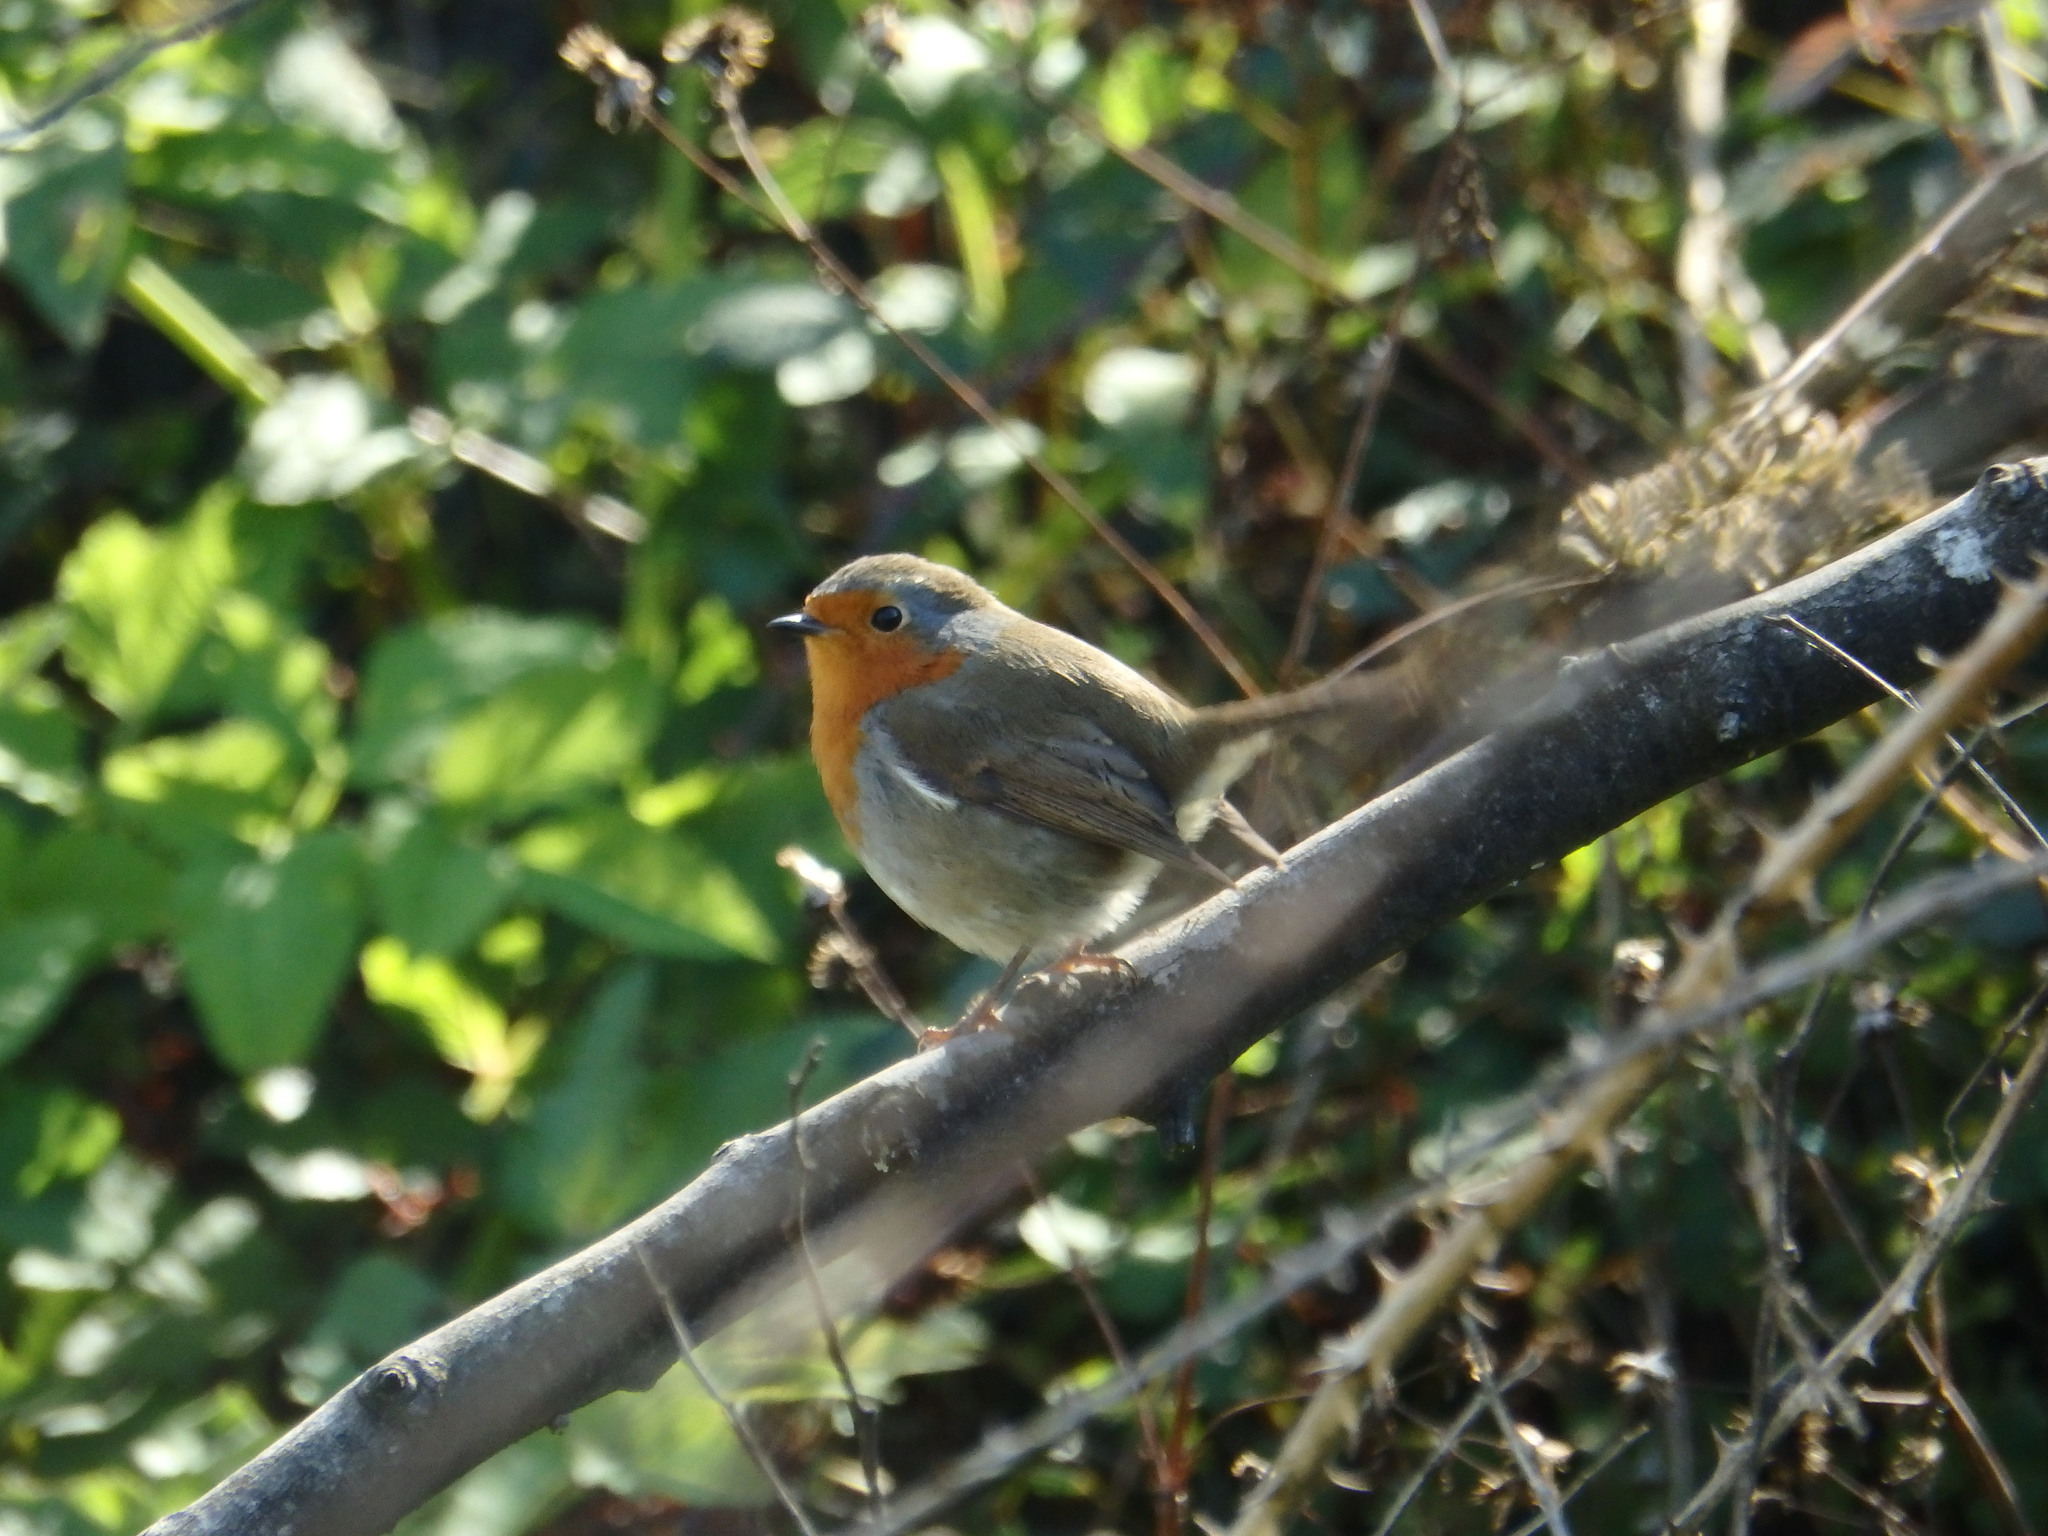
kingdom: Animalia
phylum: Chordata
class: Aves
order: Passeriformes
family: Muscicapidae
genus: Erithacus
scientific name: Erithacus rubecula
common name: European robin
